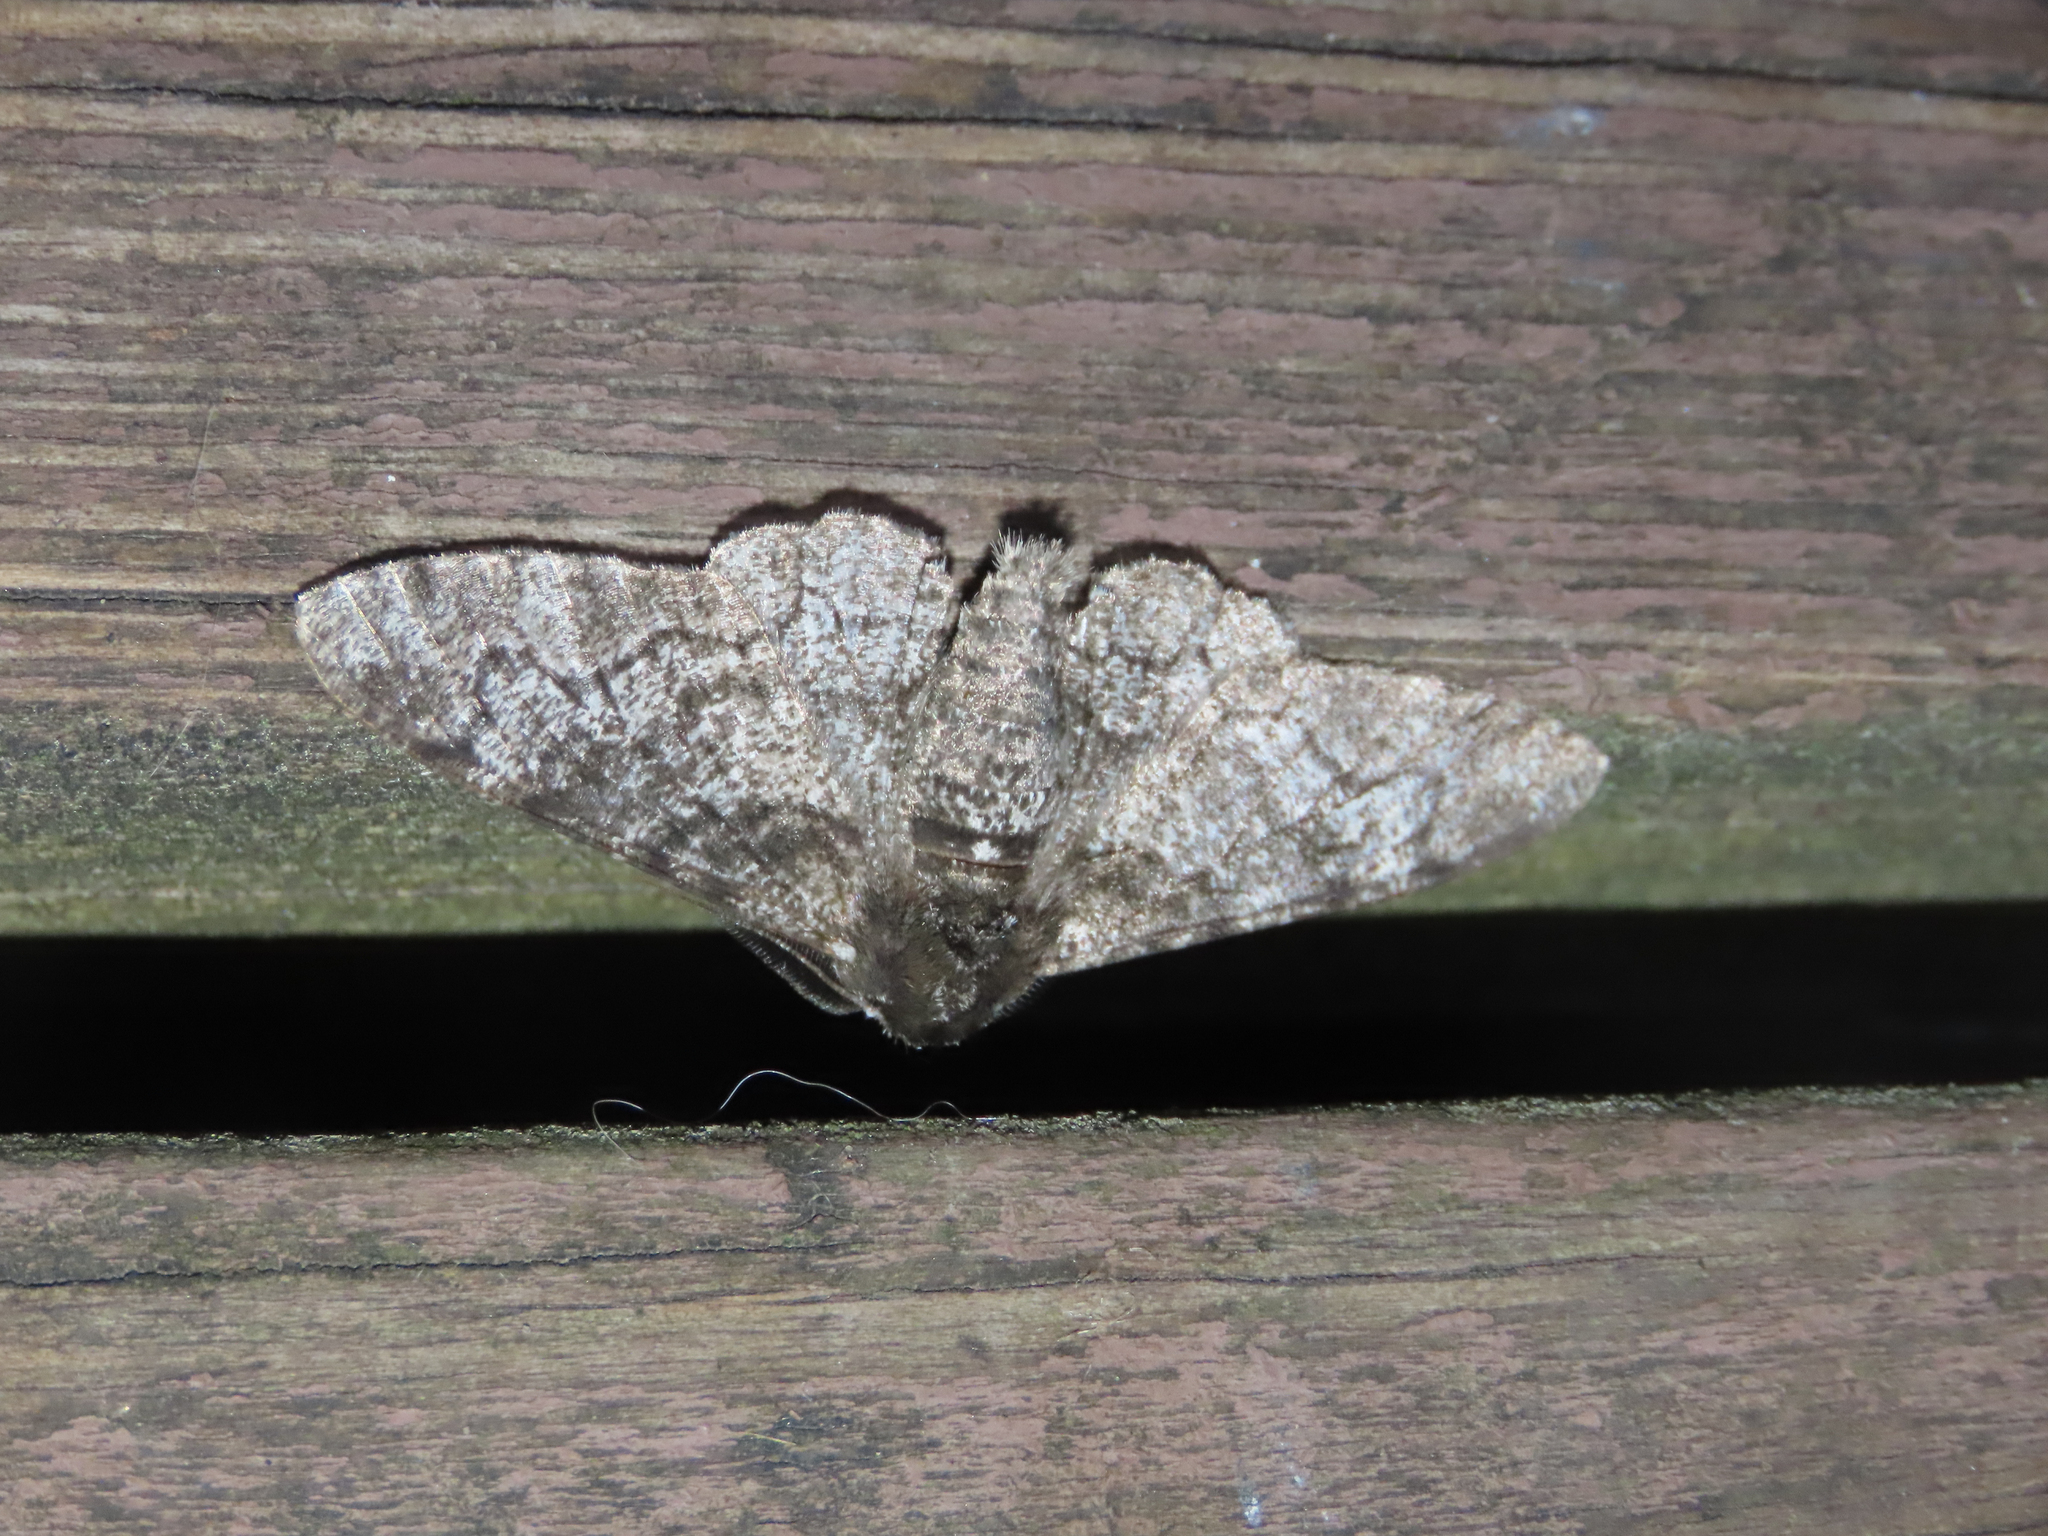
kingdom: Animalia
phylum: Arthropoda
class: Insecta
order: Lepidoptera
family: Geometridae
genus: Biston
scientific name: Biston betularia
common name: Peppered moth
